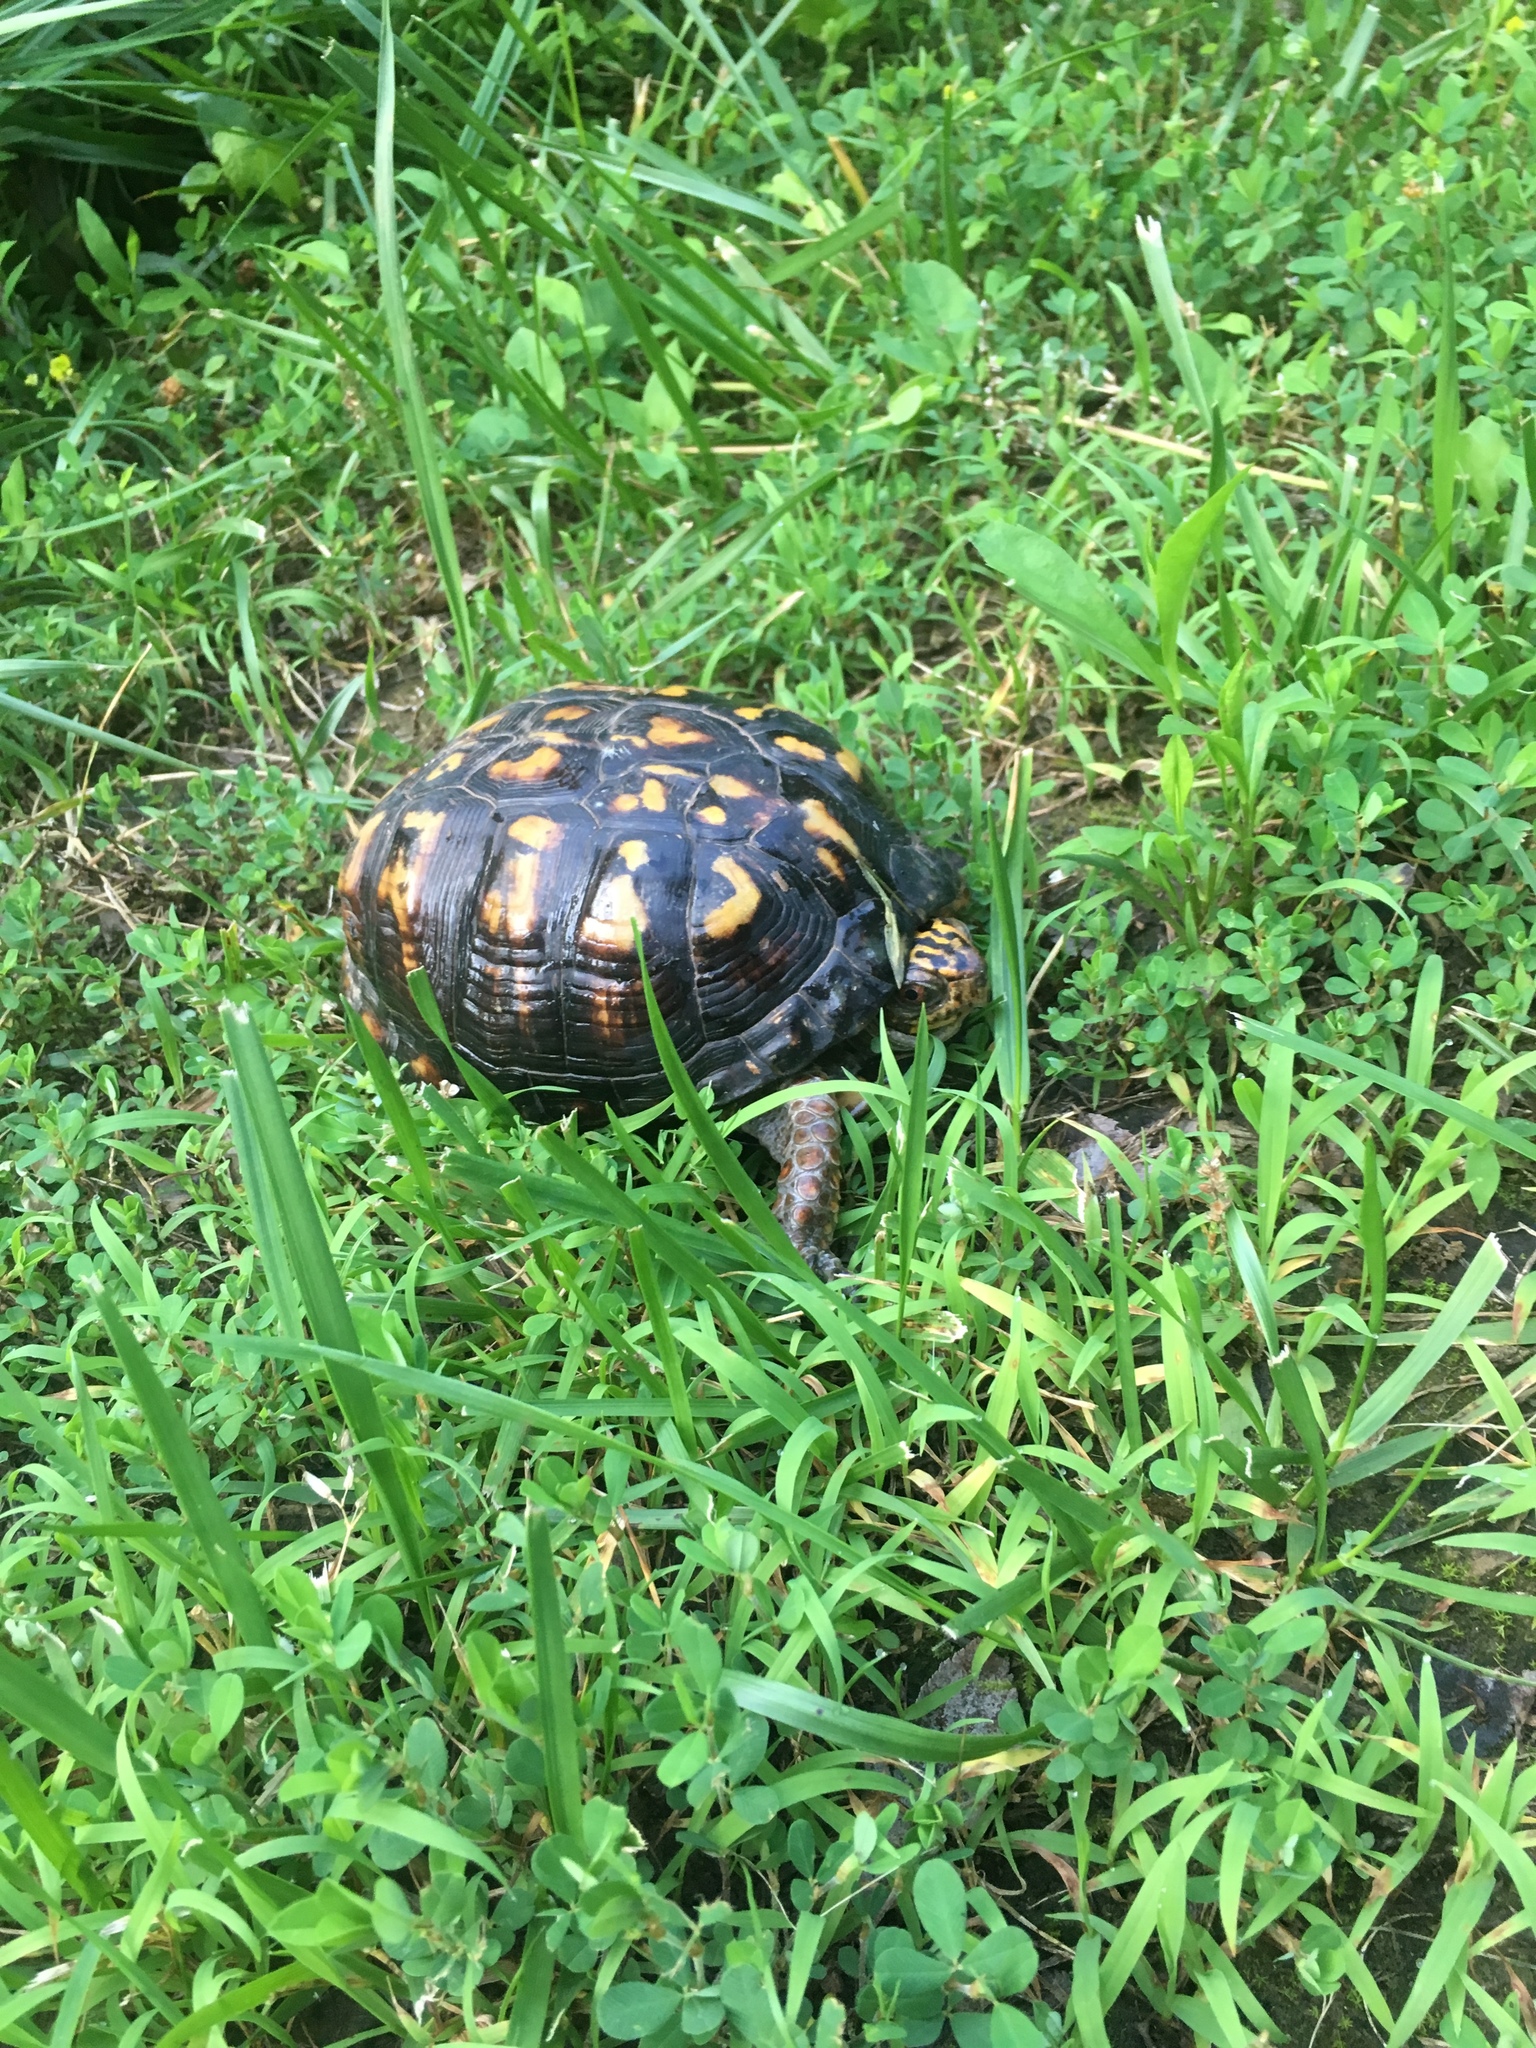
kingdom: Animalia
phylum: Chordata
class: Testudines
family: Emydidae
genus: Terrapene
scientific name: Terrapene carolina
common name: Common box turtle
